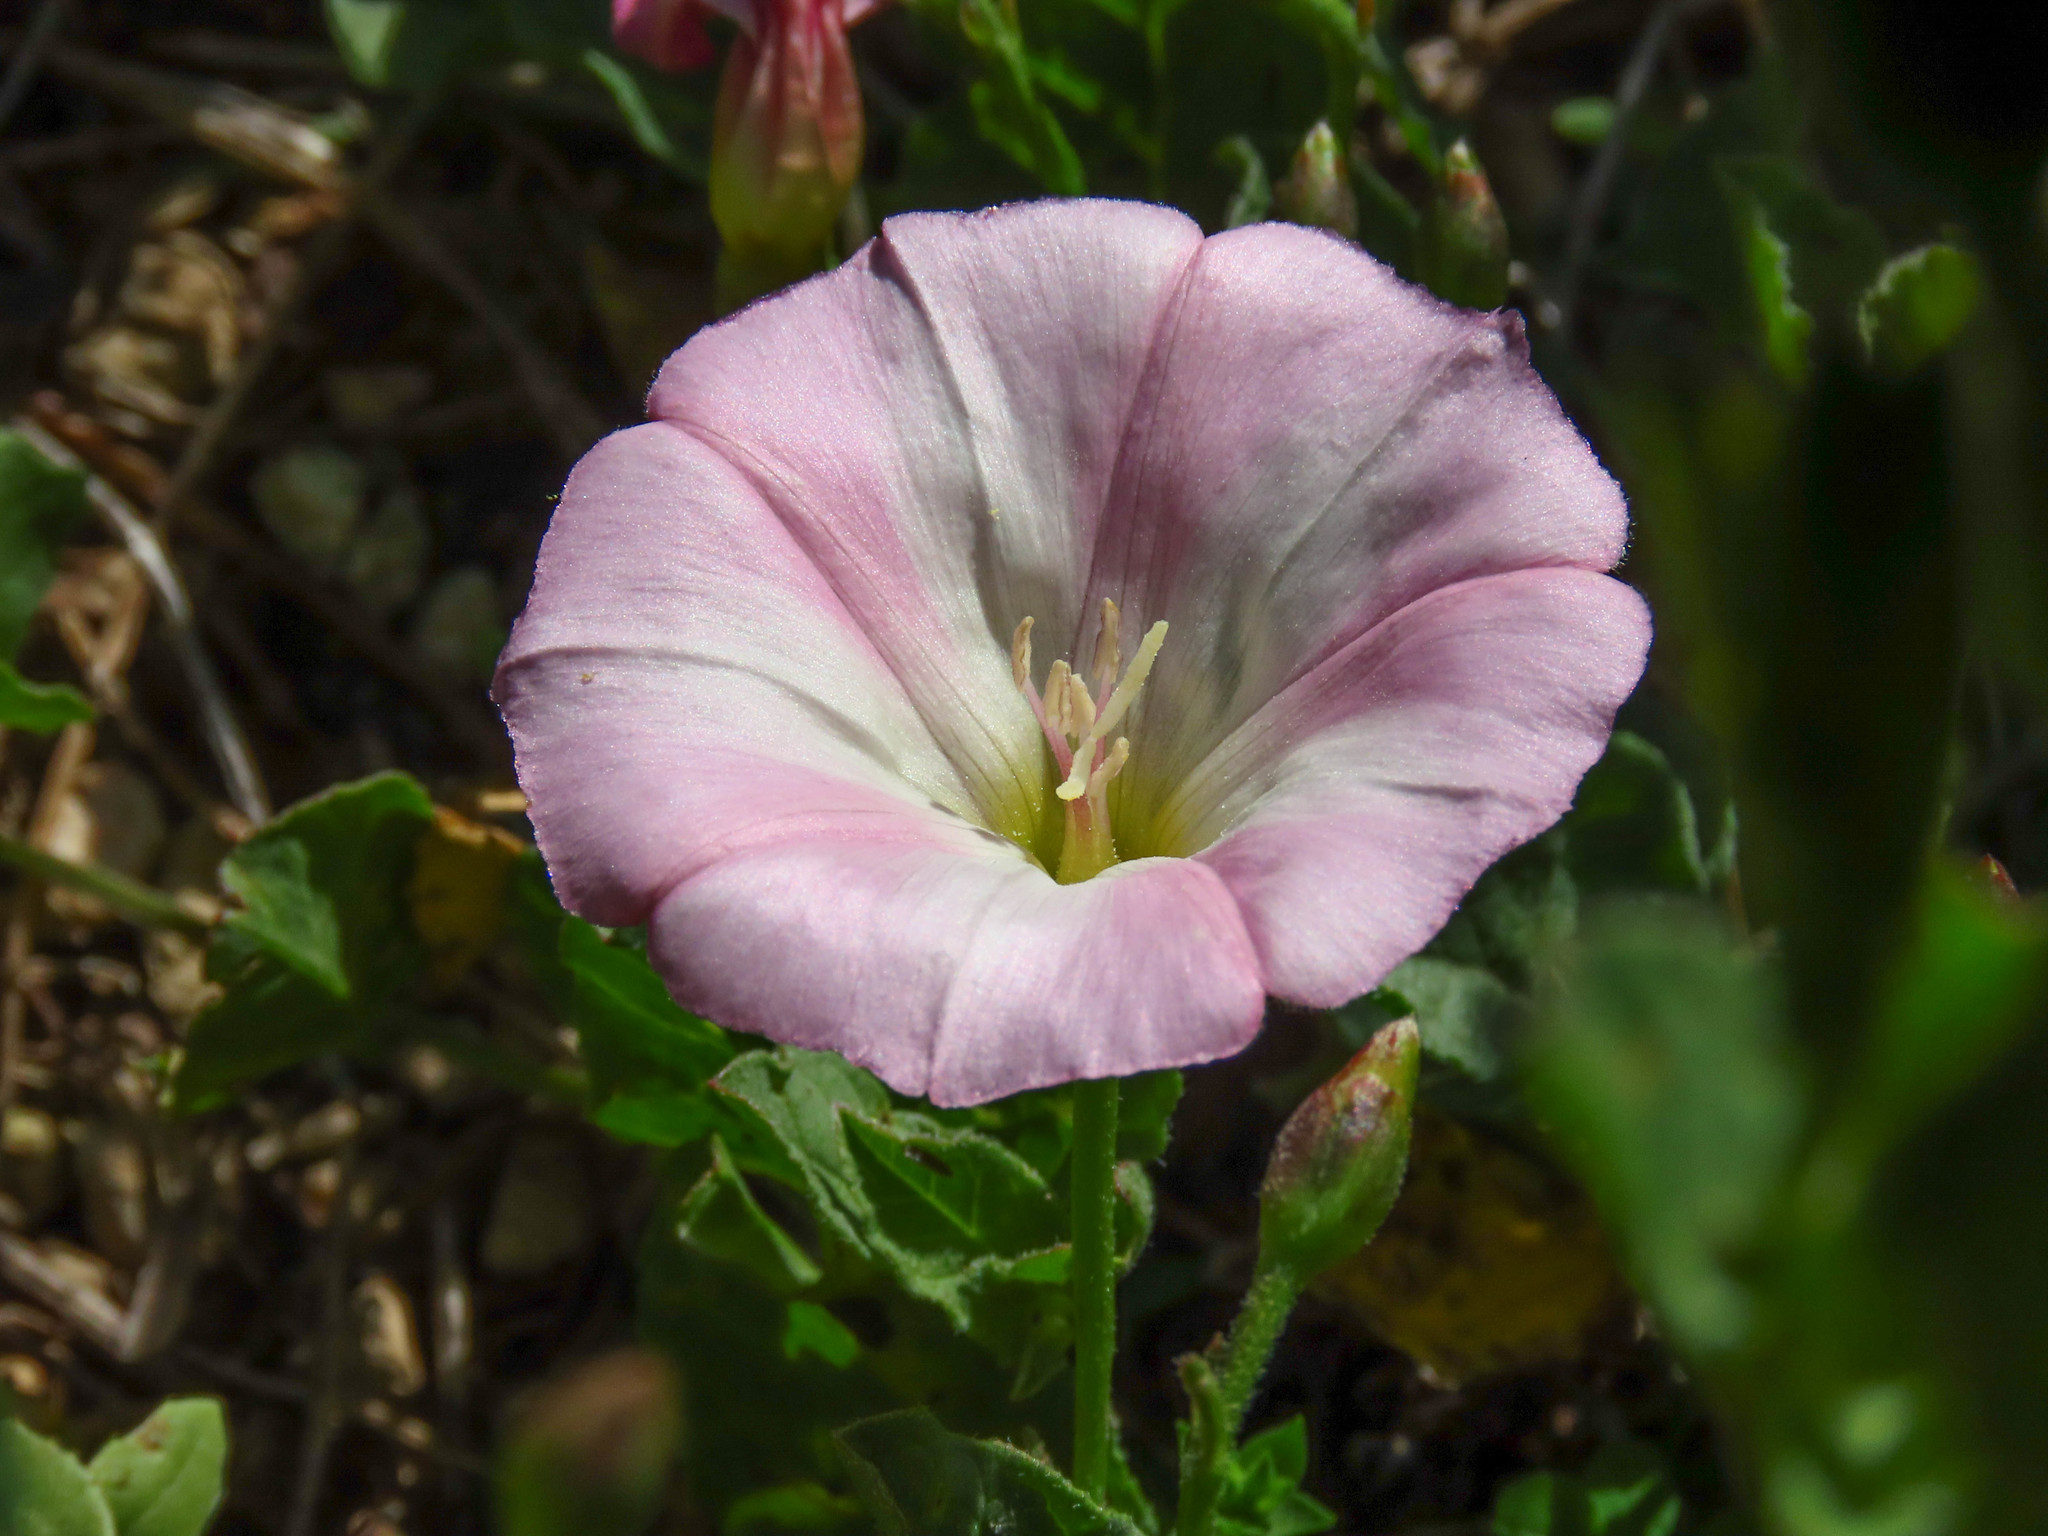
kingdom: Plantae
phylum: Tracheophyta
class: Magnoliopsida
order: Solanales
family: Convolvulaceae
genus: Convolvulus
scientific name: Convolvulus arvensis
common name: Field bindweed
